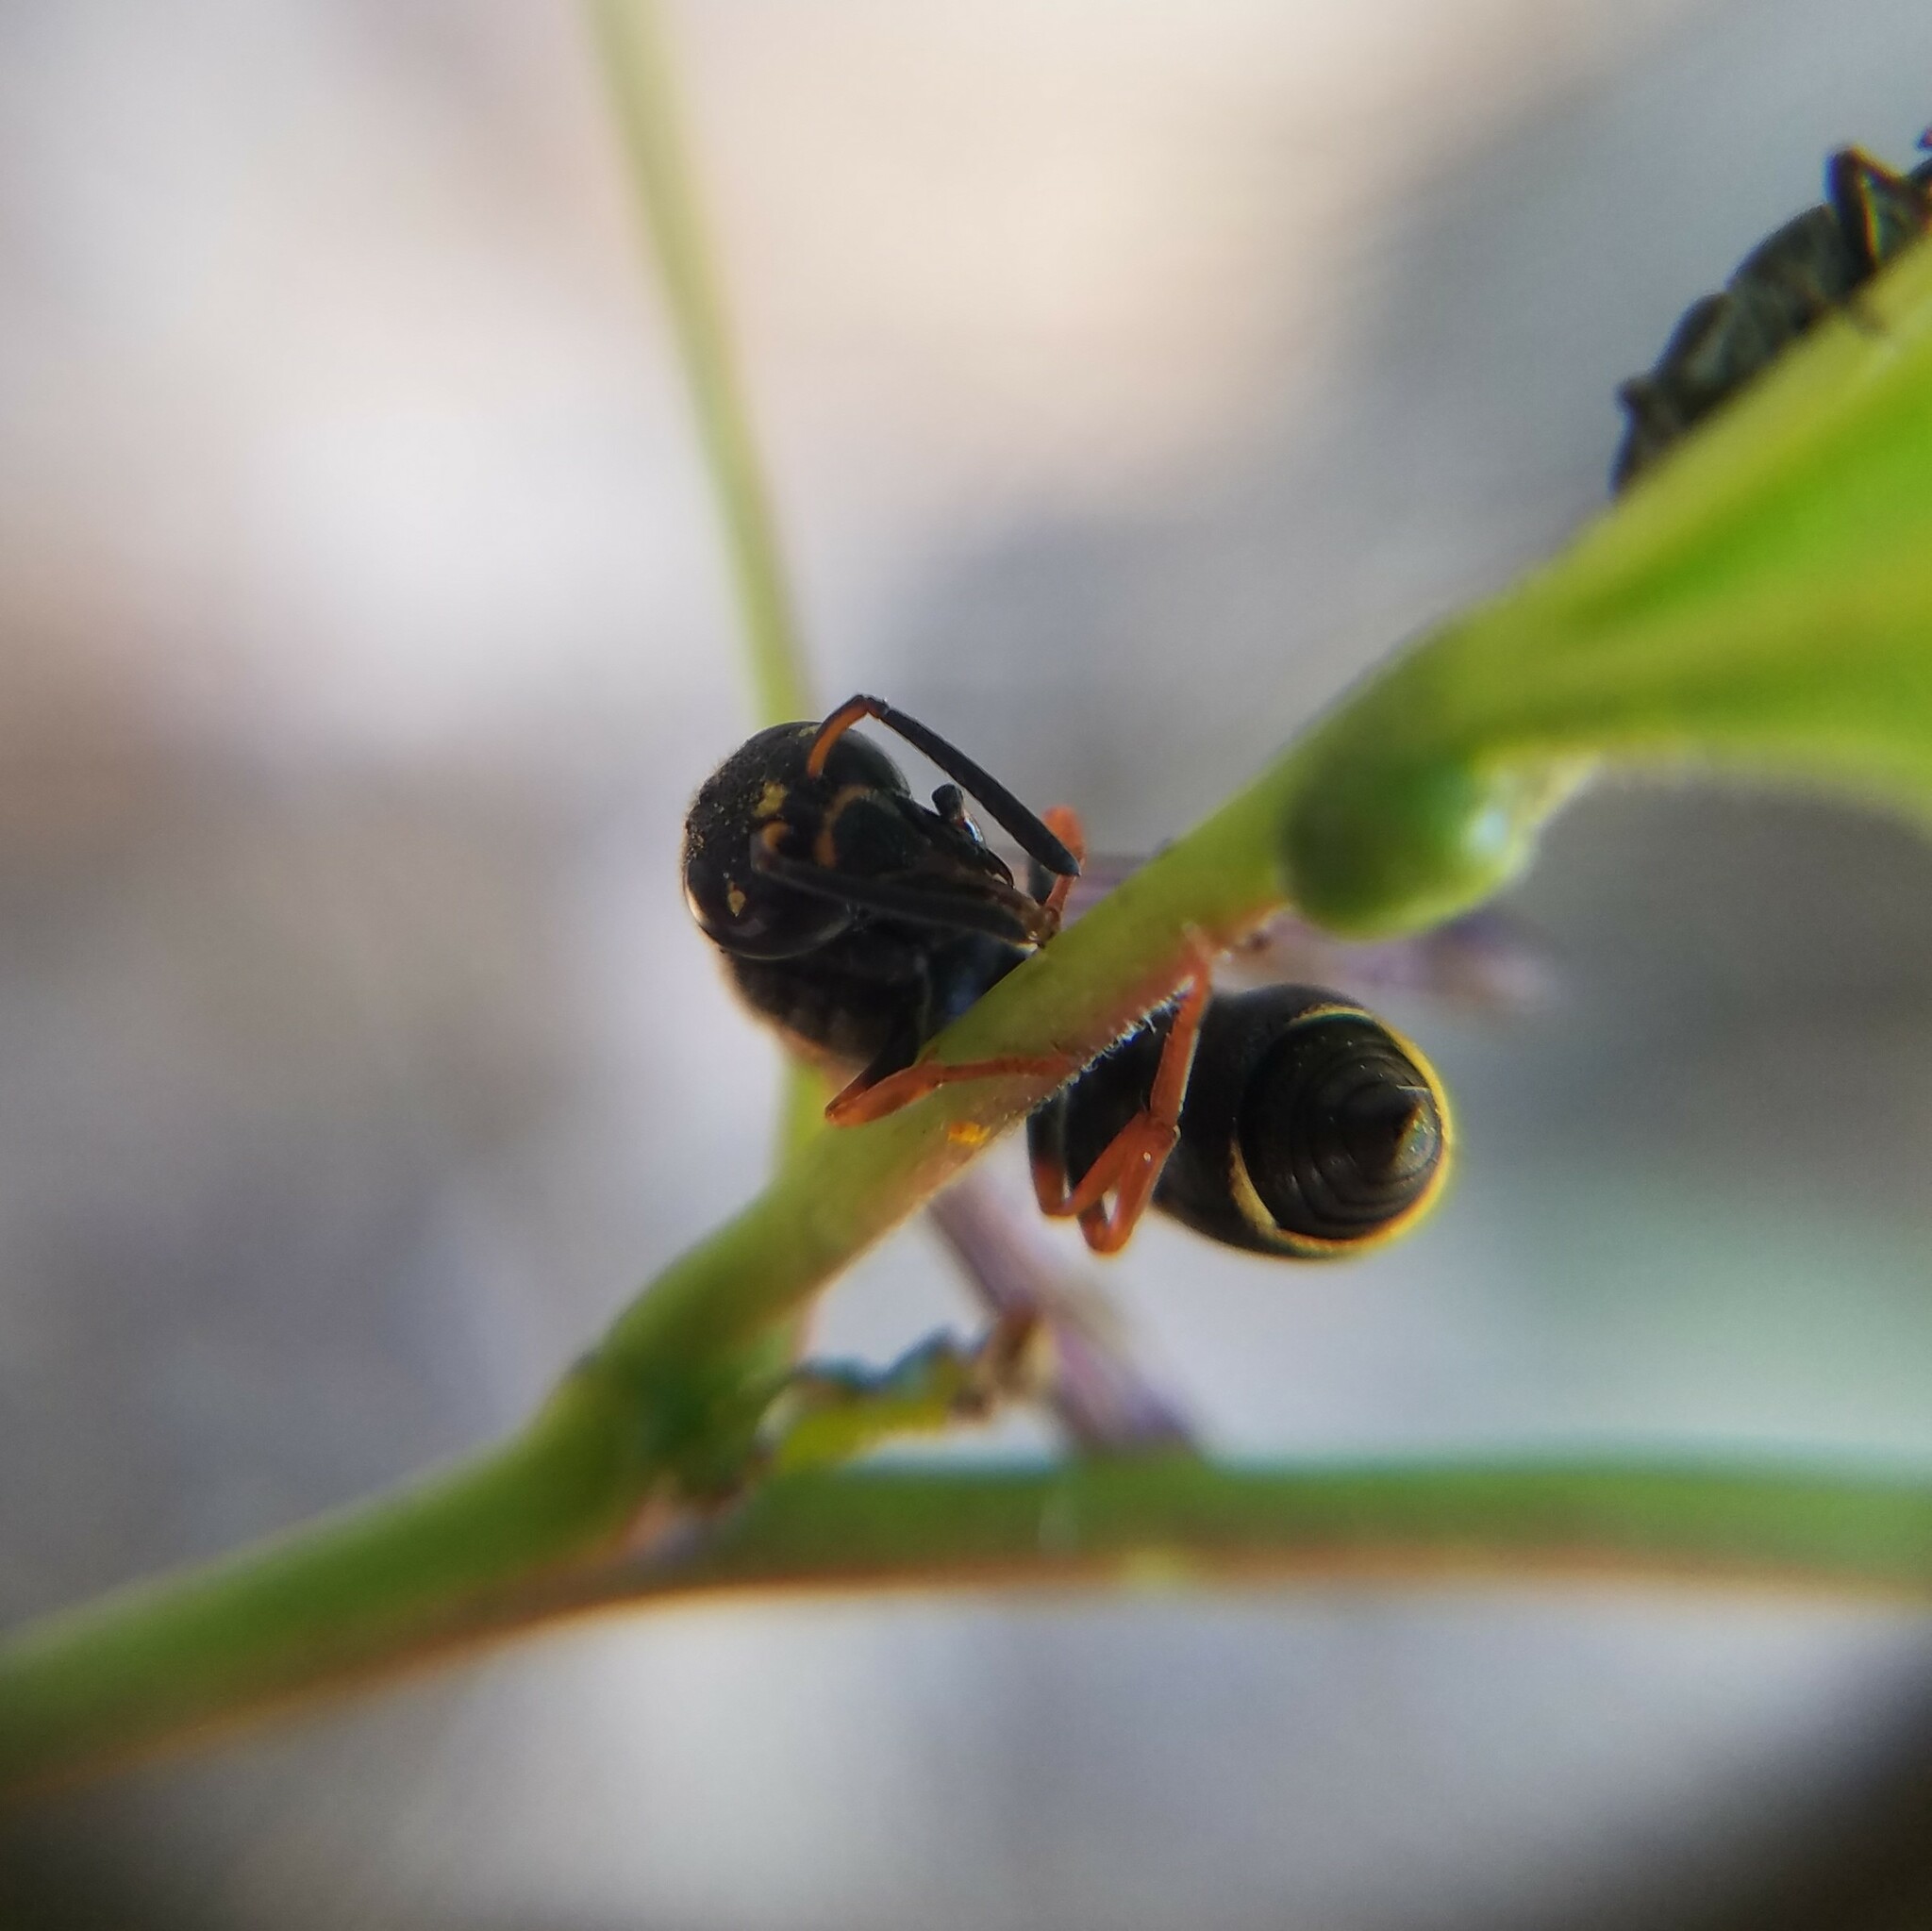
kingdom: Animalia
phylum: Arthropoda
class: Insecta
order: Hymenoptera
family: Eumenidae
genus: Parancistrocerus
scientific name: Parancistrocerus fulvipes
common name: Potter wasp
